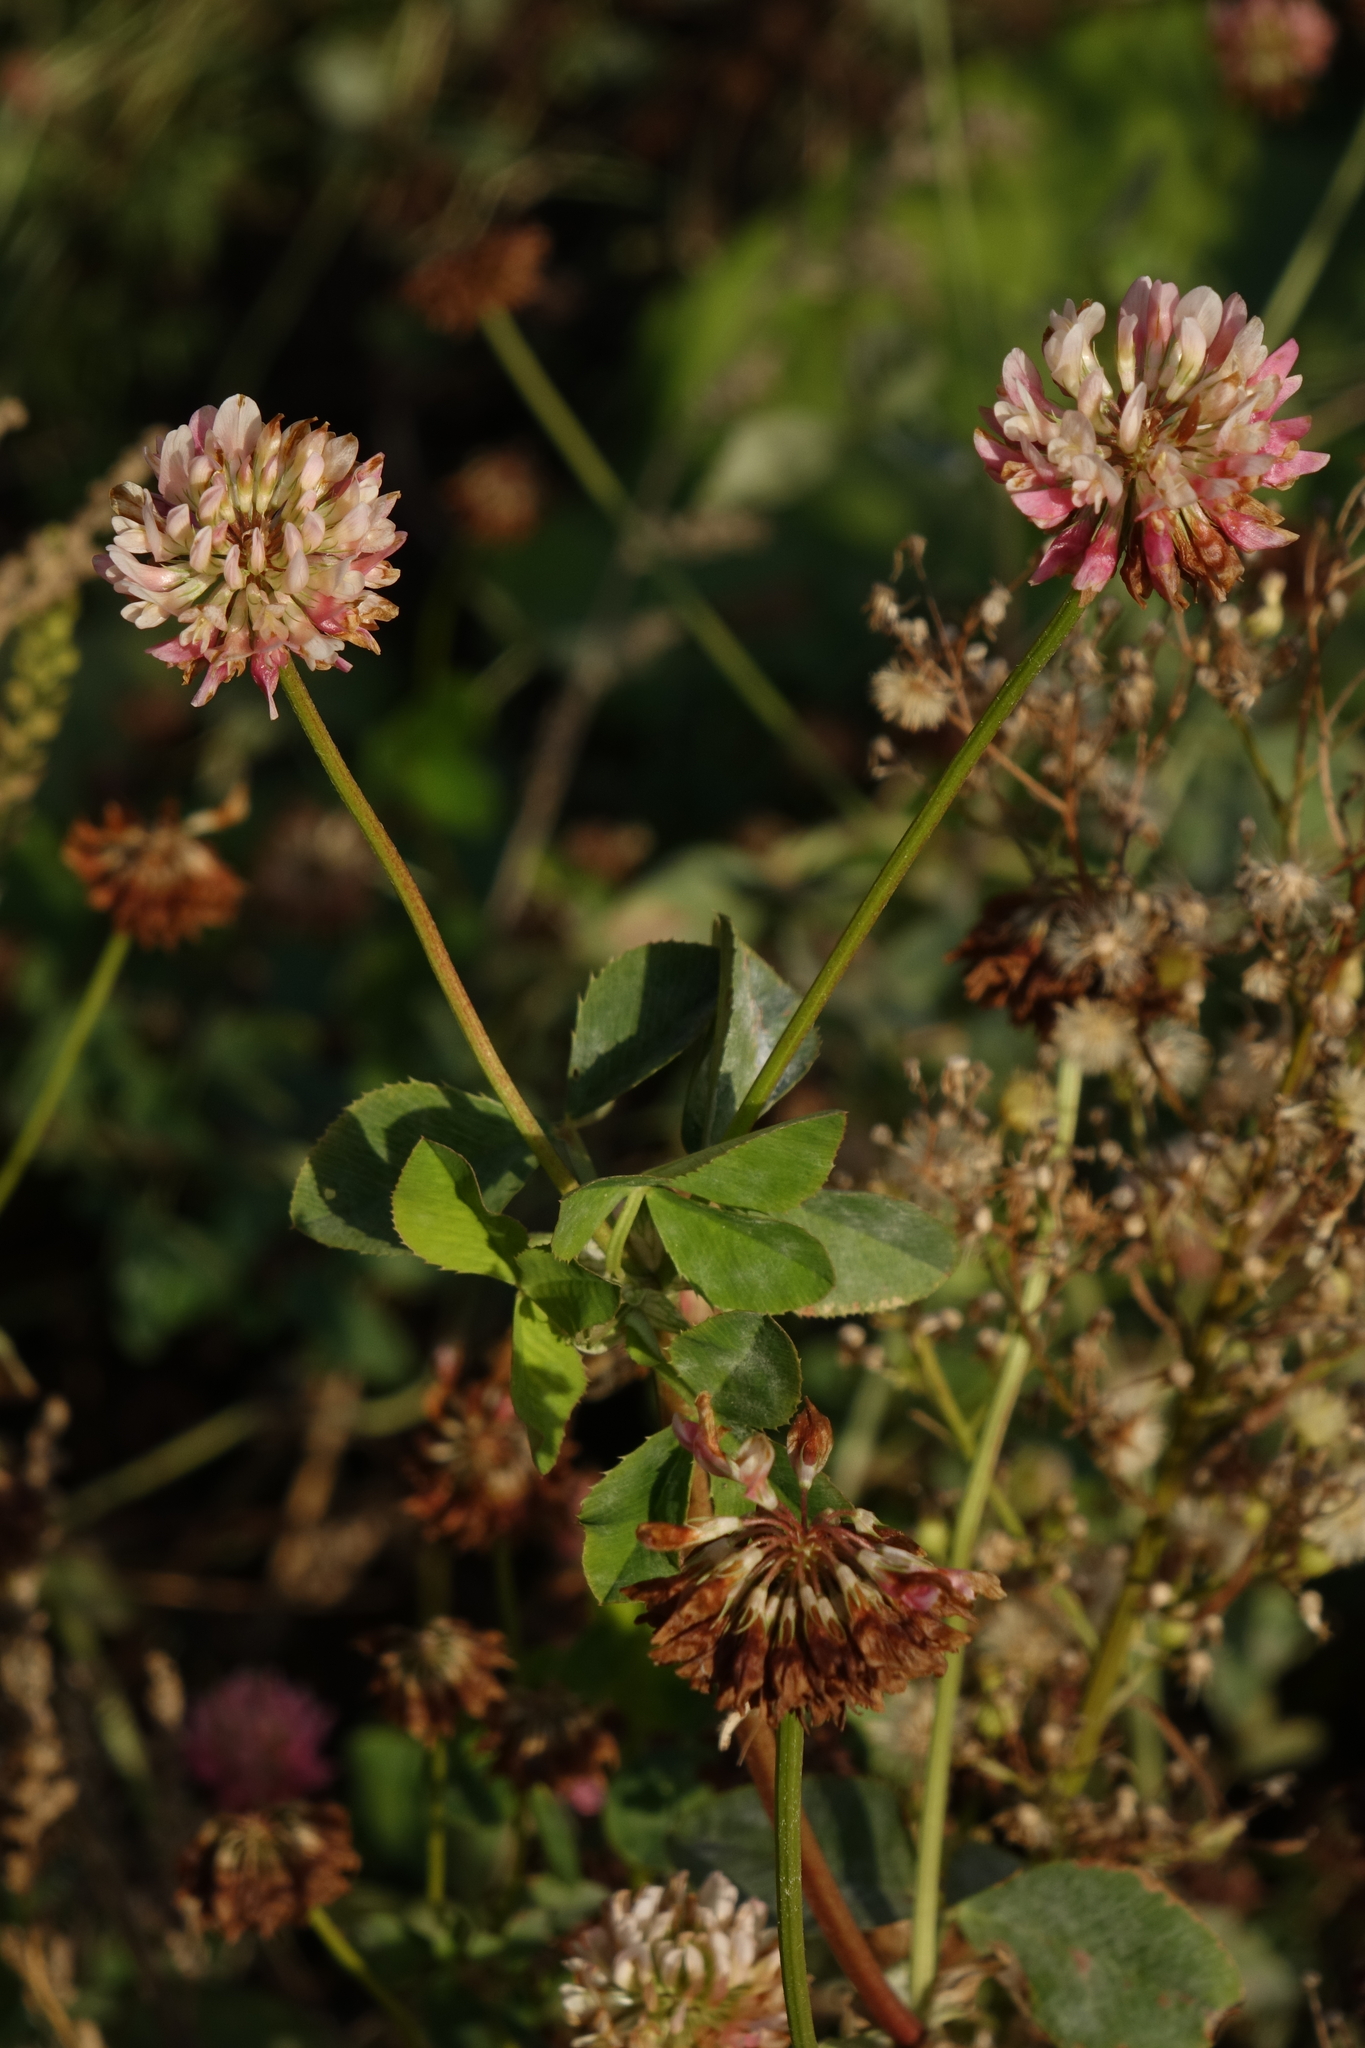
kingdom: Plantae
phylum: Tracheophyta
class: Magnoliopsida
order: Fabales
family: Fabaceae
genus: Trifolium
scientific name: Trifolium hybridum
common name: Alsike clover
